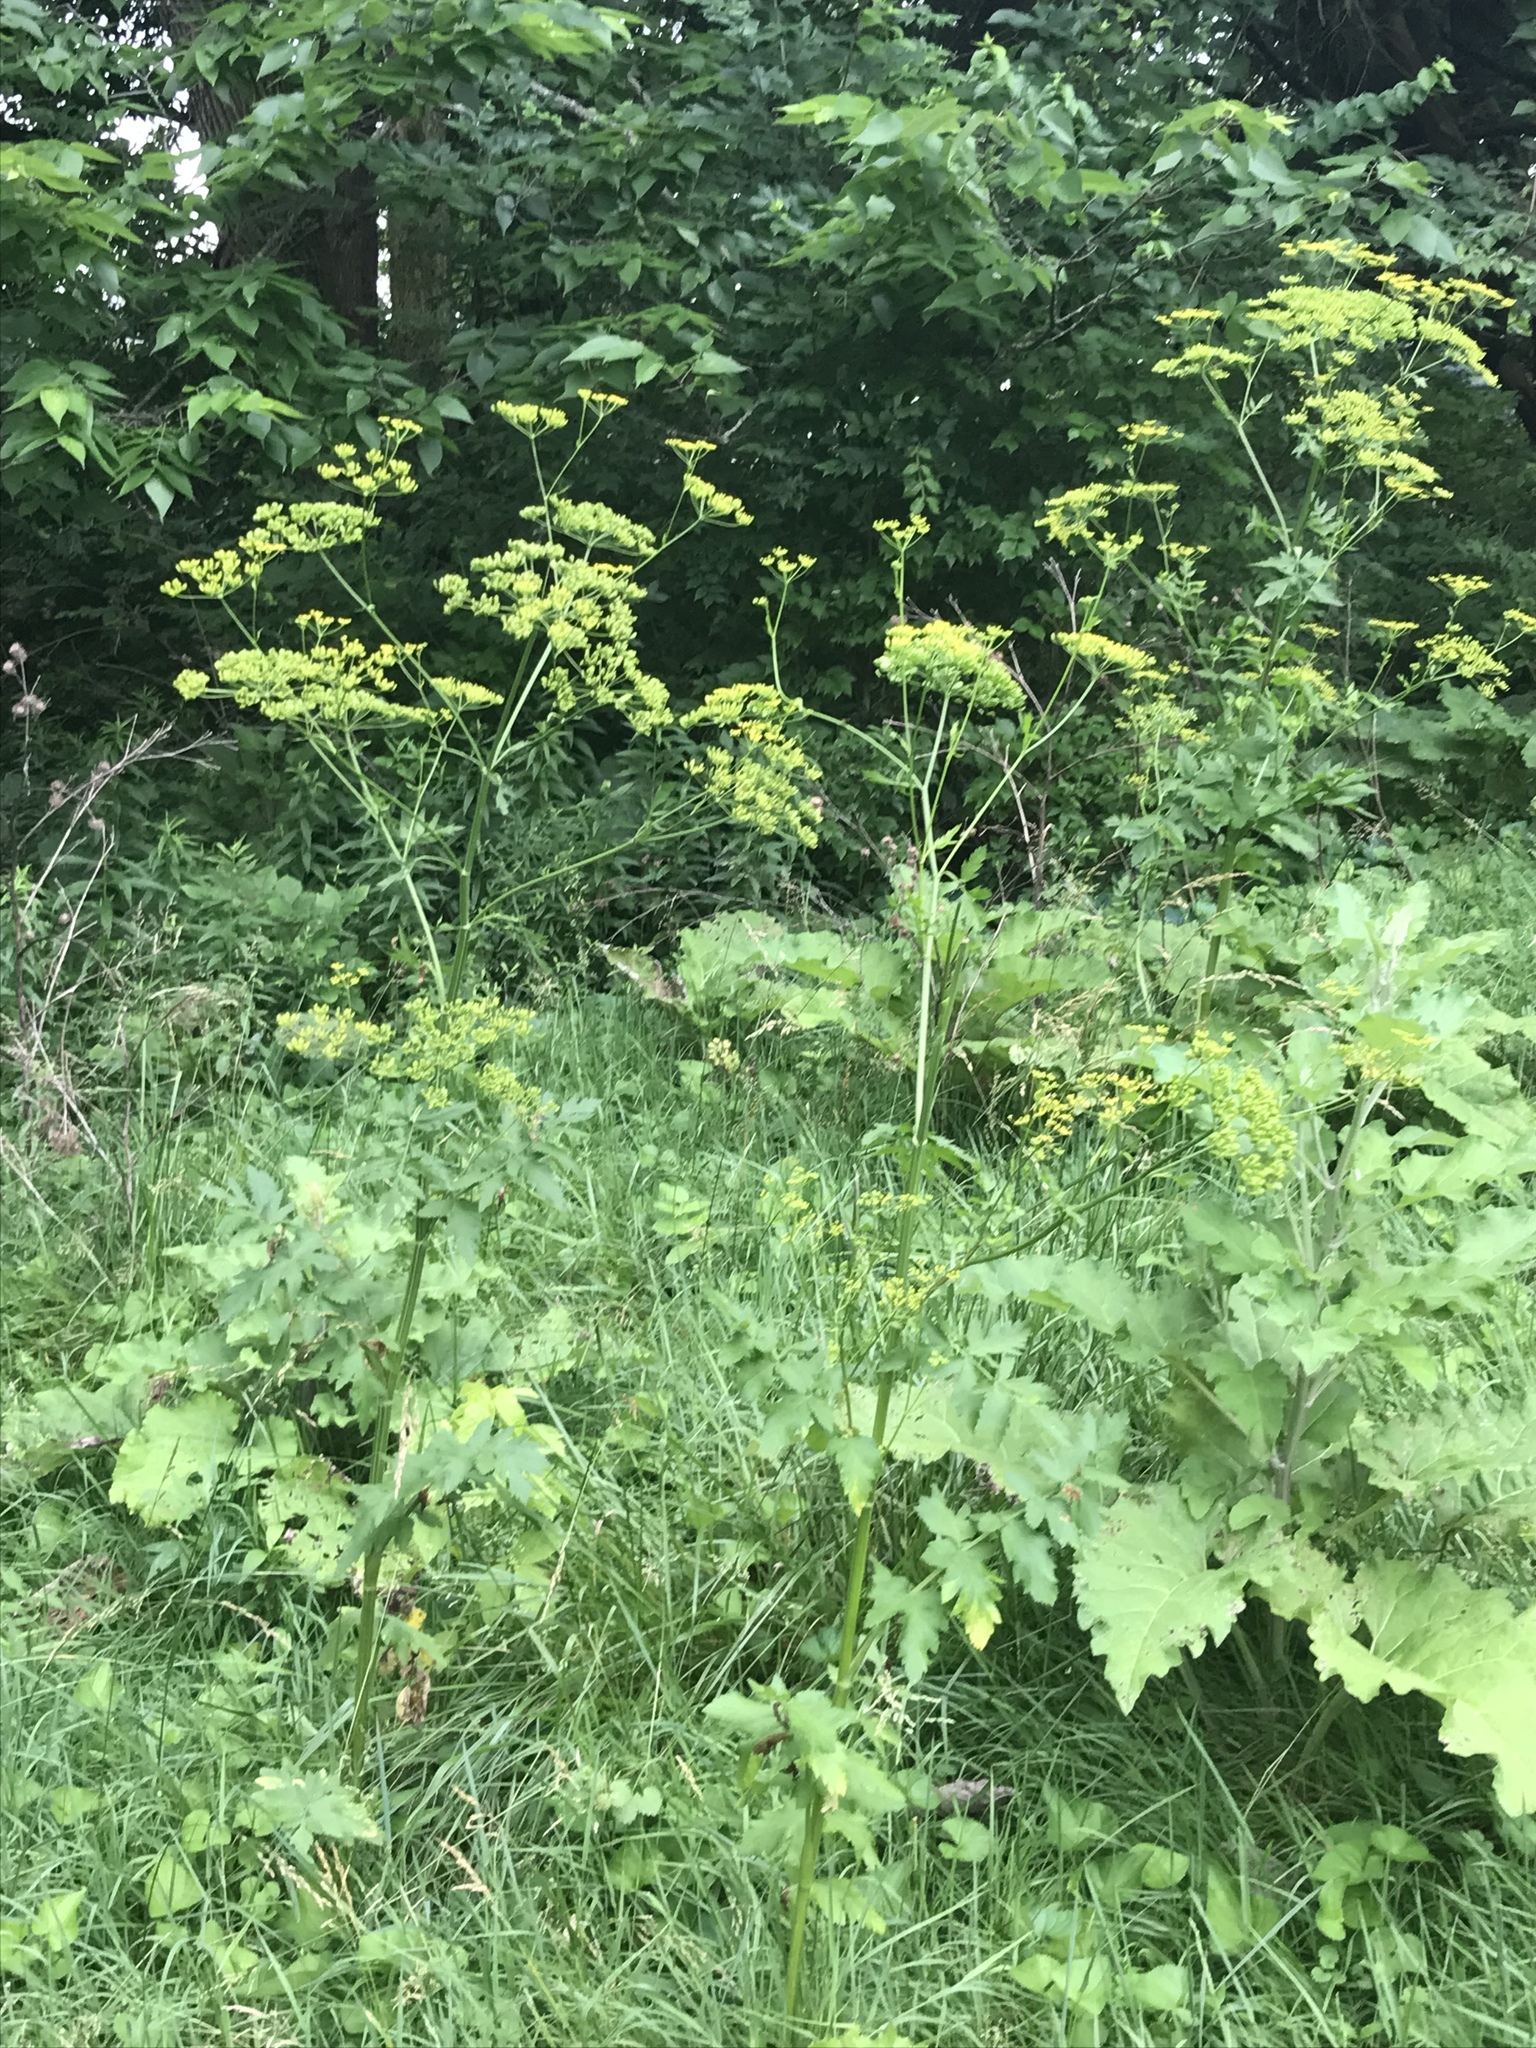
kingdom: Plantae
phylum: Tracheophyta
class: Magnoliopsida
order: Apiales
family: Apiaceae
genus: Pastinaca
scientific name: Pastinaca sativa
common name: Wild parsnip
